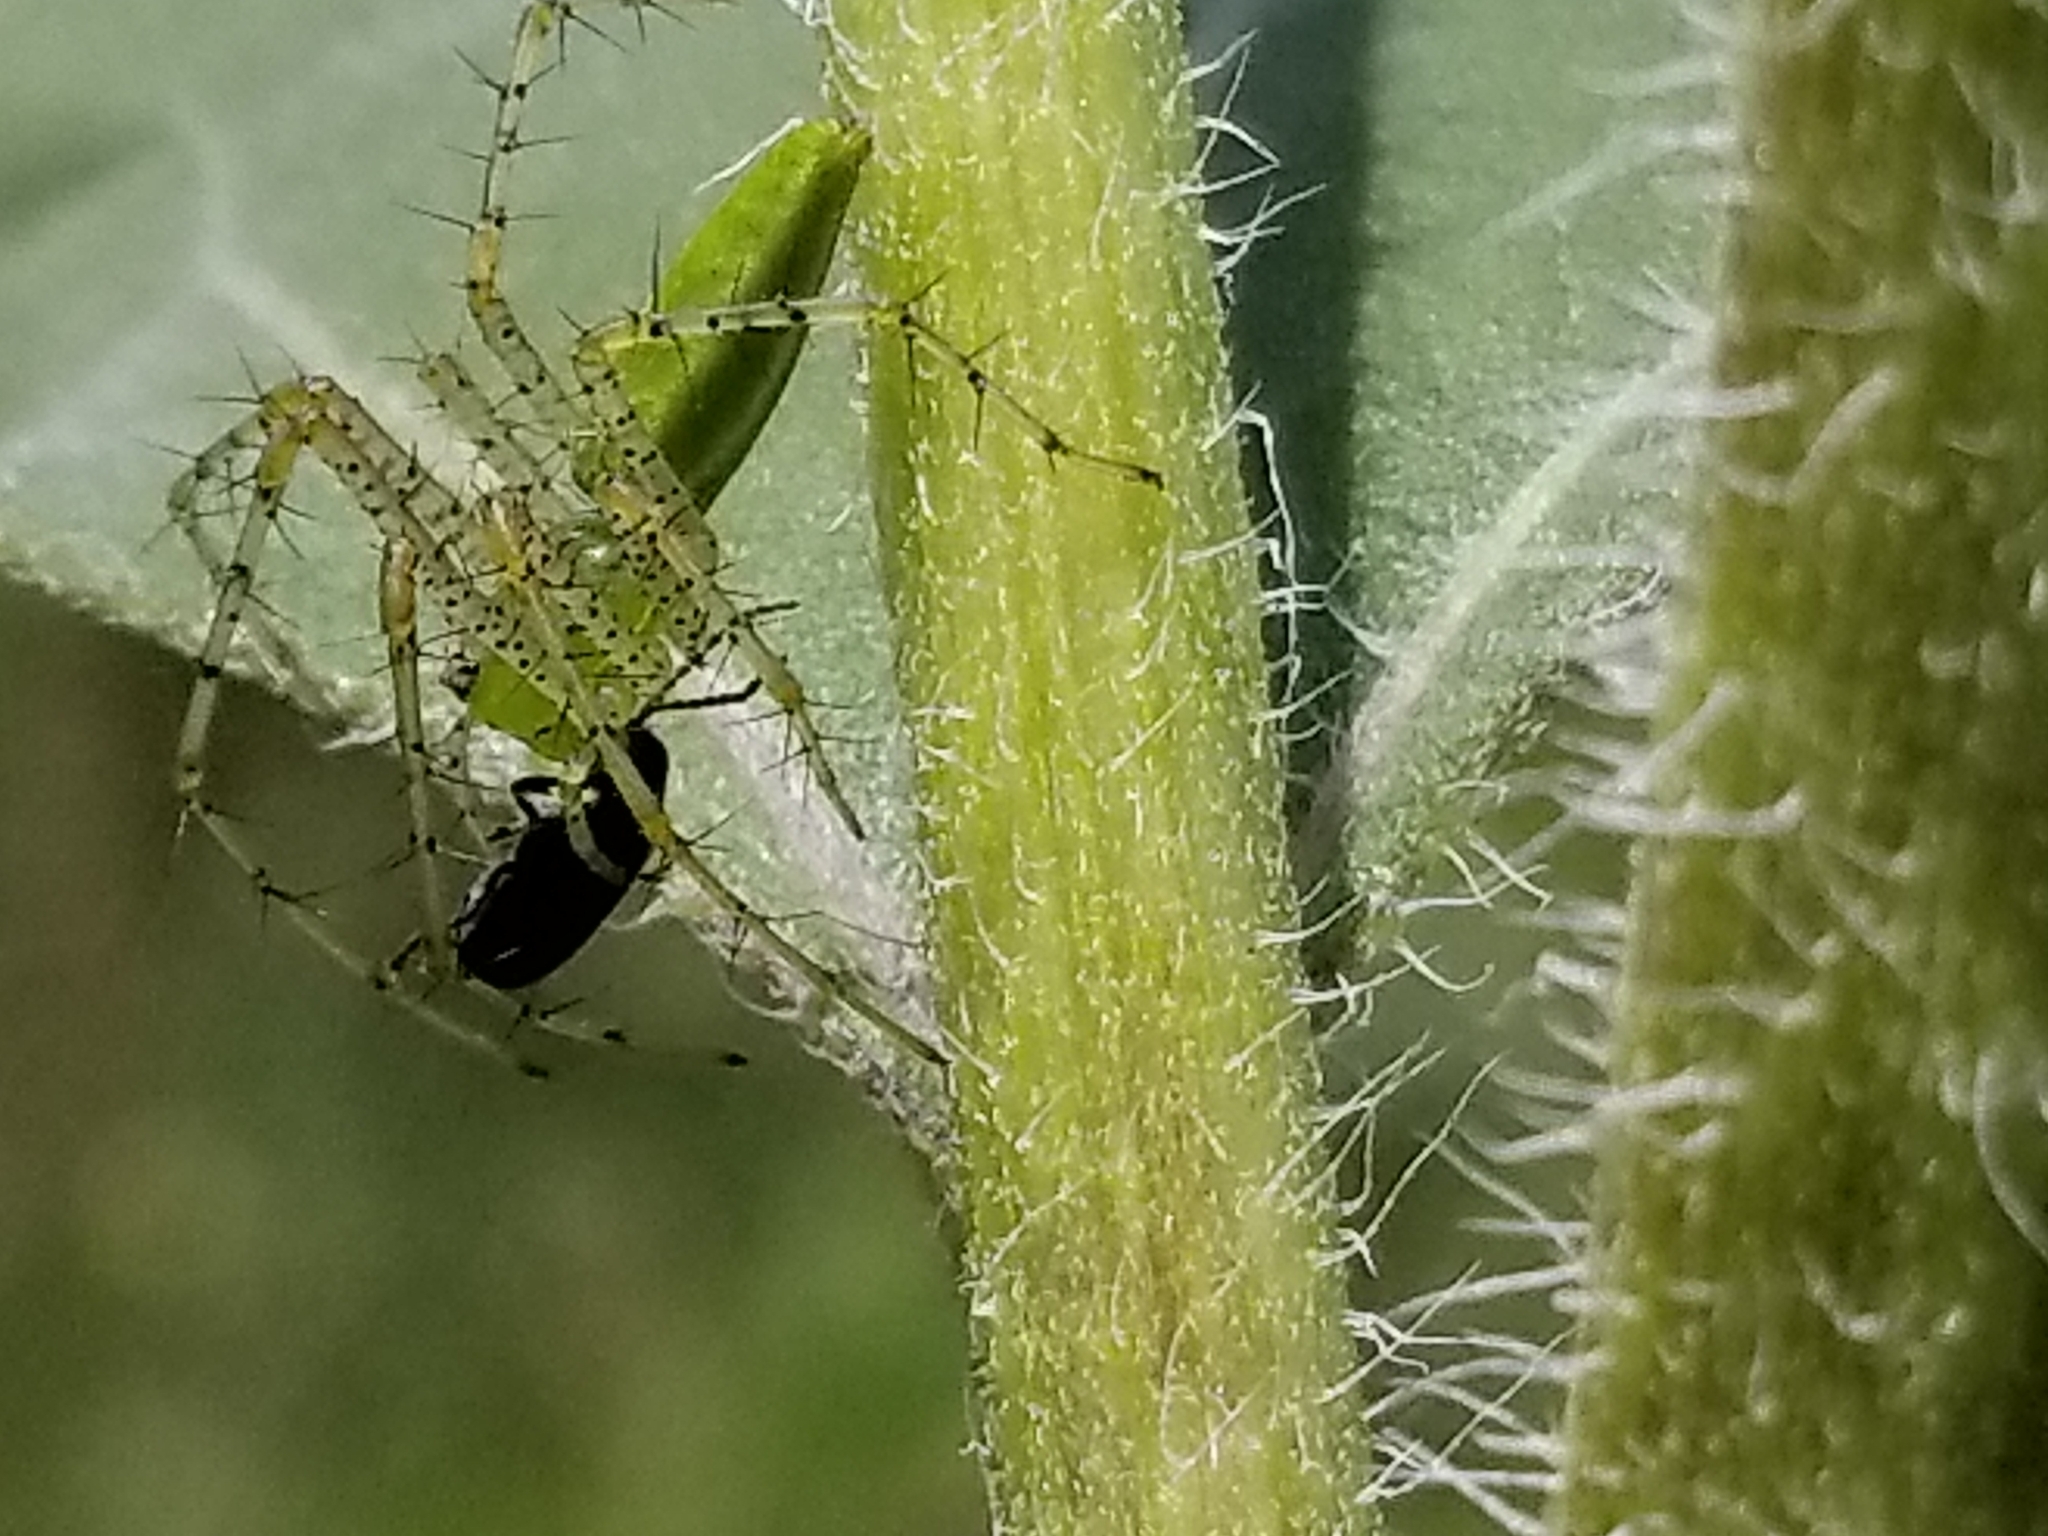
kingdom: Animalia
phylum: Arthropoda
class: Arachnida
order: Araneae
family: Oxyopidae
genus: Peucetia
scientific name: Peucetia longipalpis
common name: Lynx spiders
